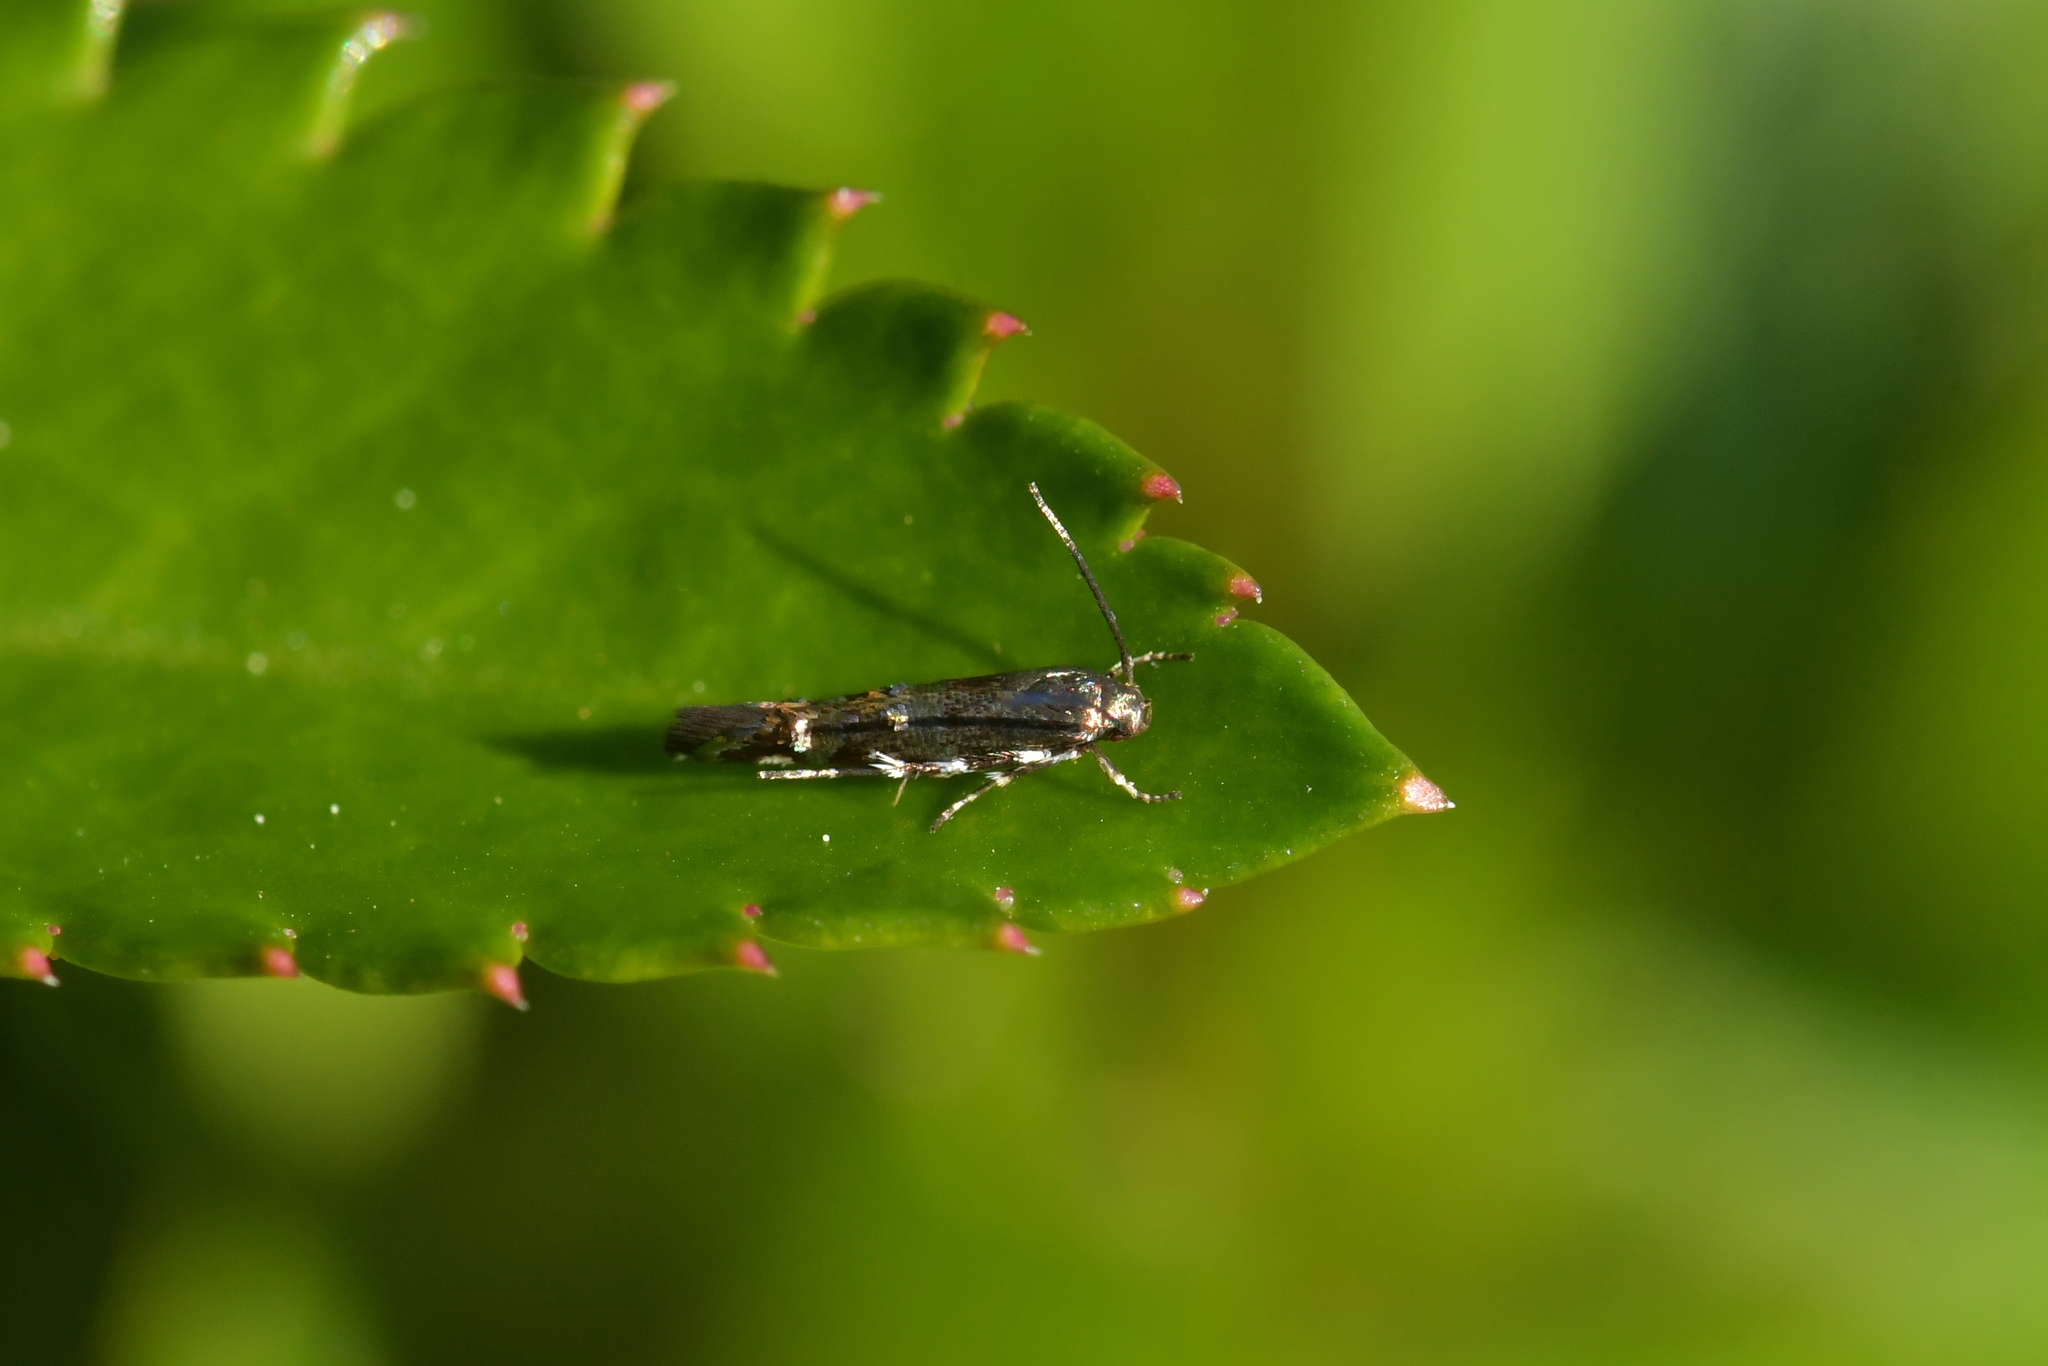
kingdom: Animalia
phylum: Arthropoda
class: Insecta
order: Lepidoptera
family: Momphidae
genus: Zapyrastra
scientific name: Zapyrastra
